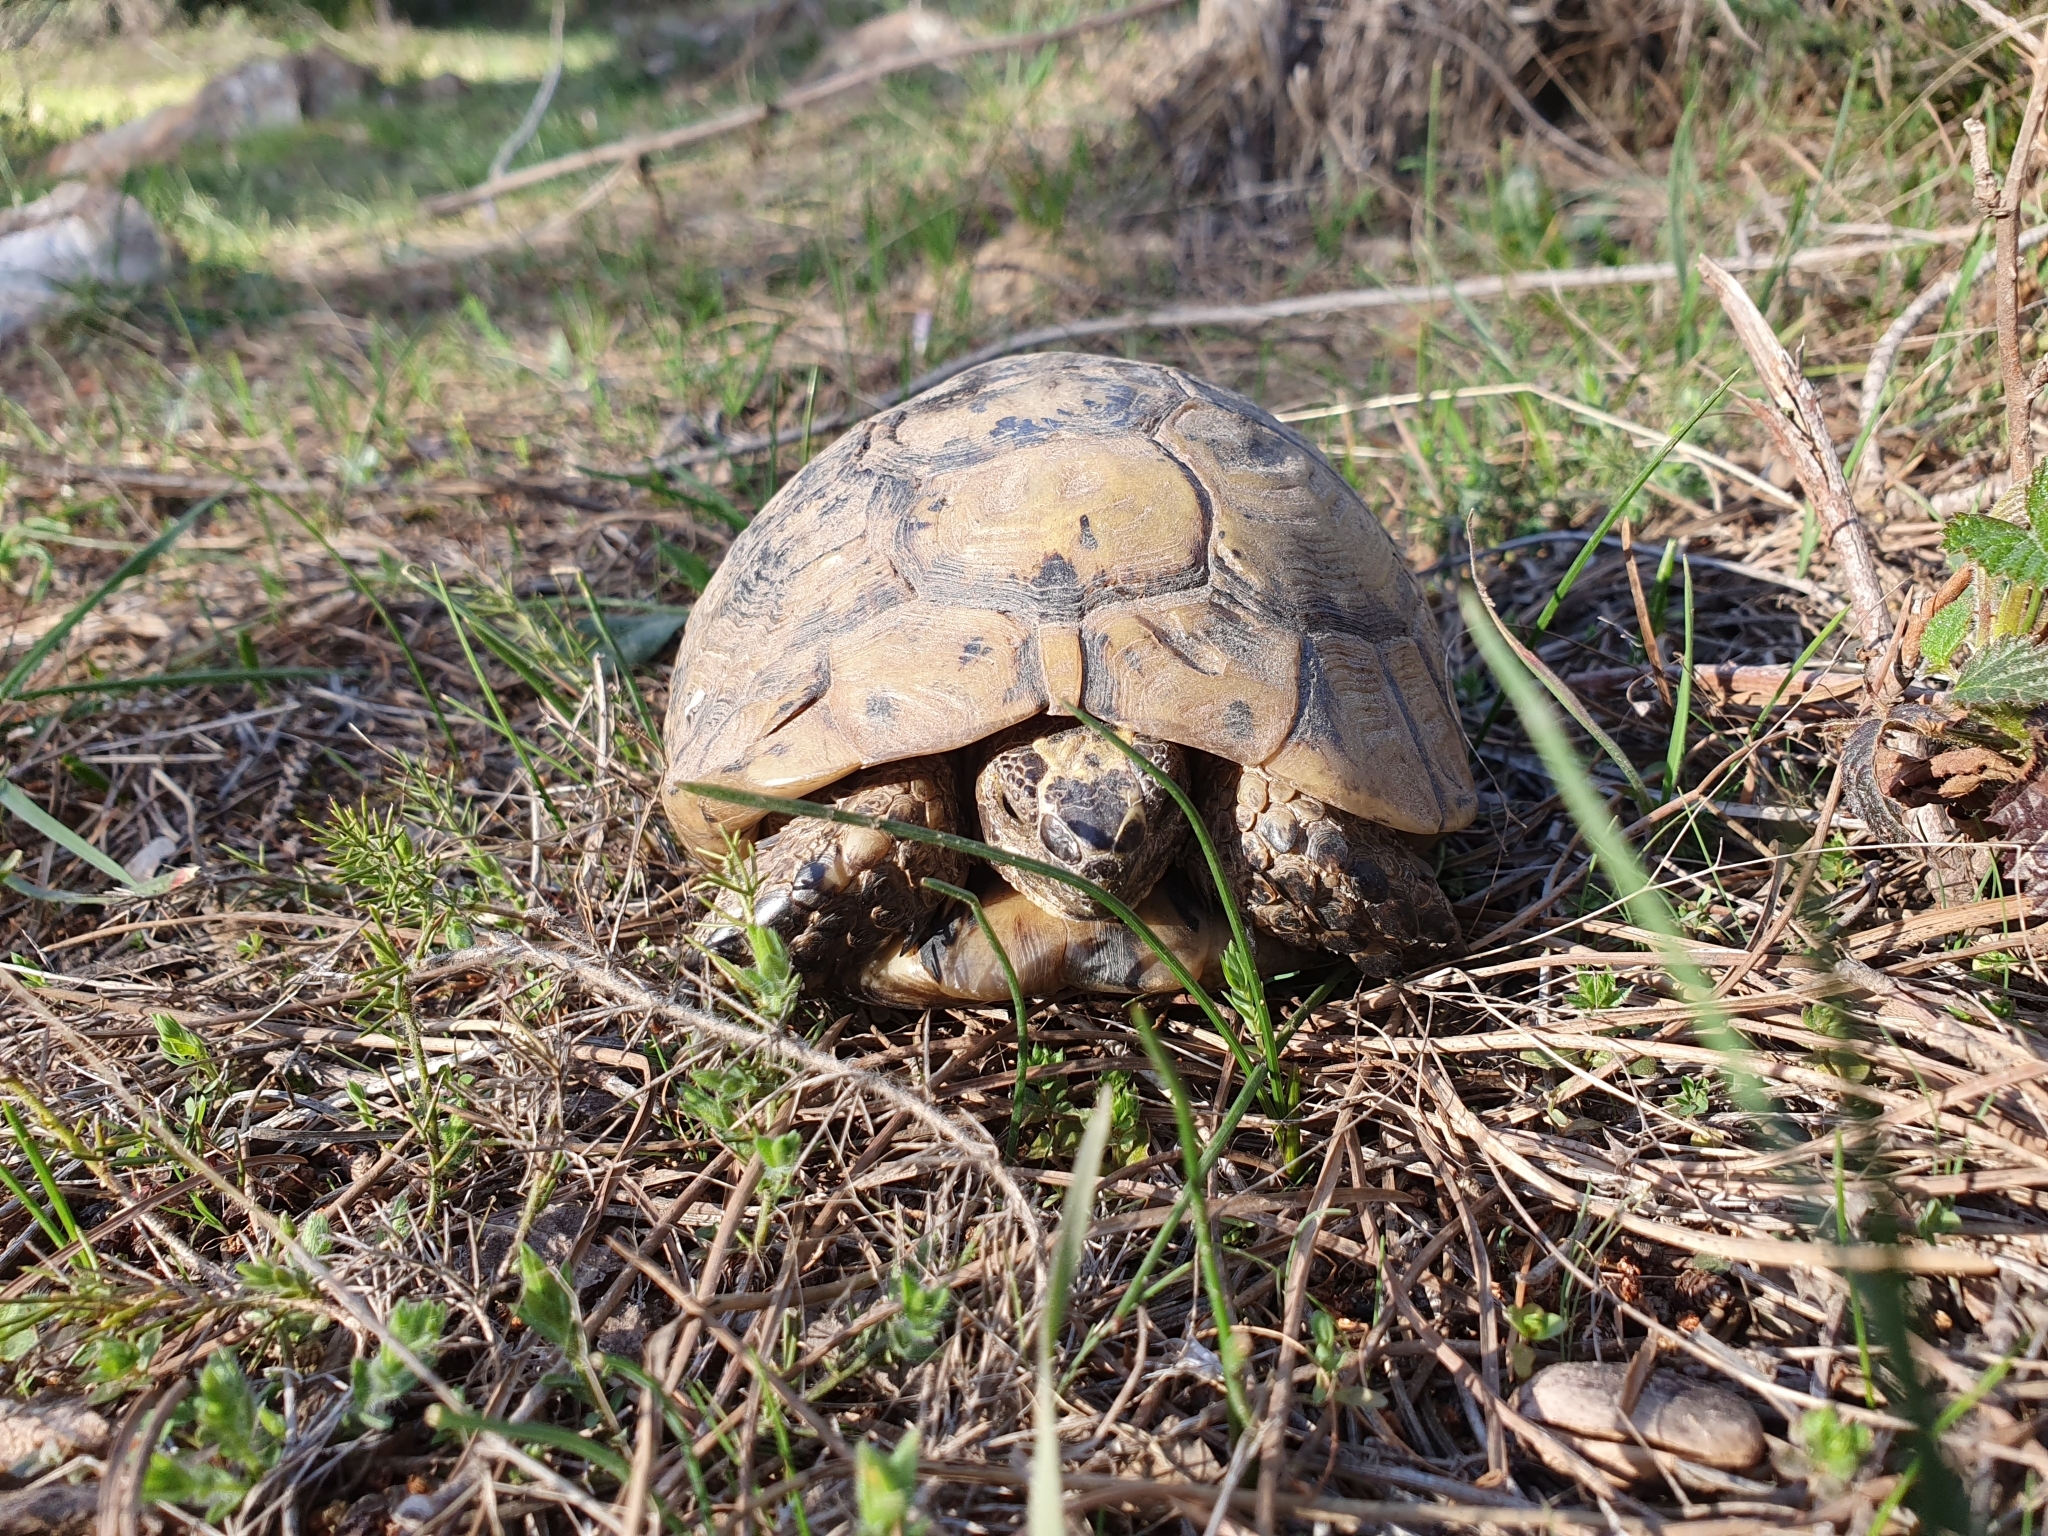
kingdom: Animalia
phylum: Chordata
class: Testudines
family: Testudinidae
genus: Testudo
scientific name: Testudo graeca
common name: Common tortoise
